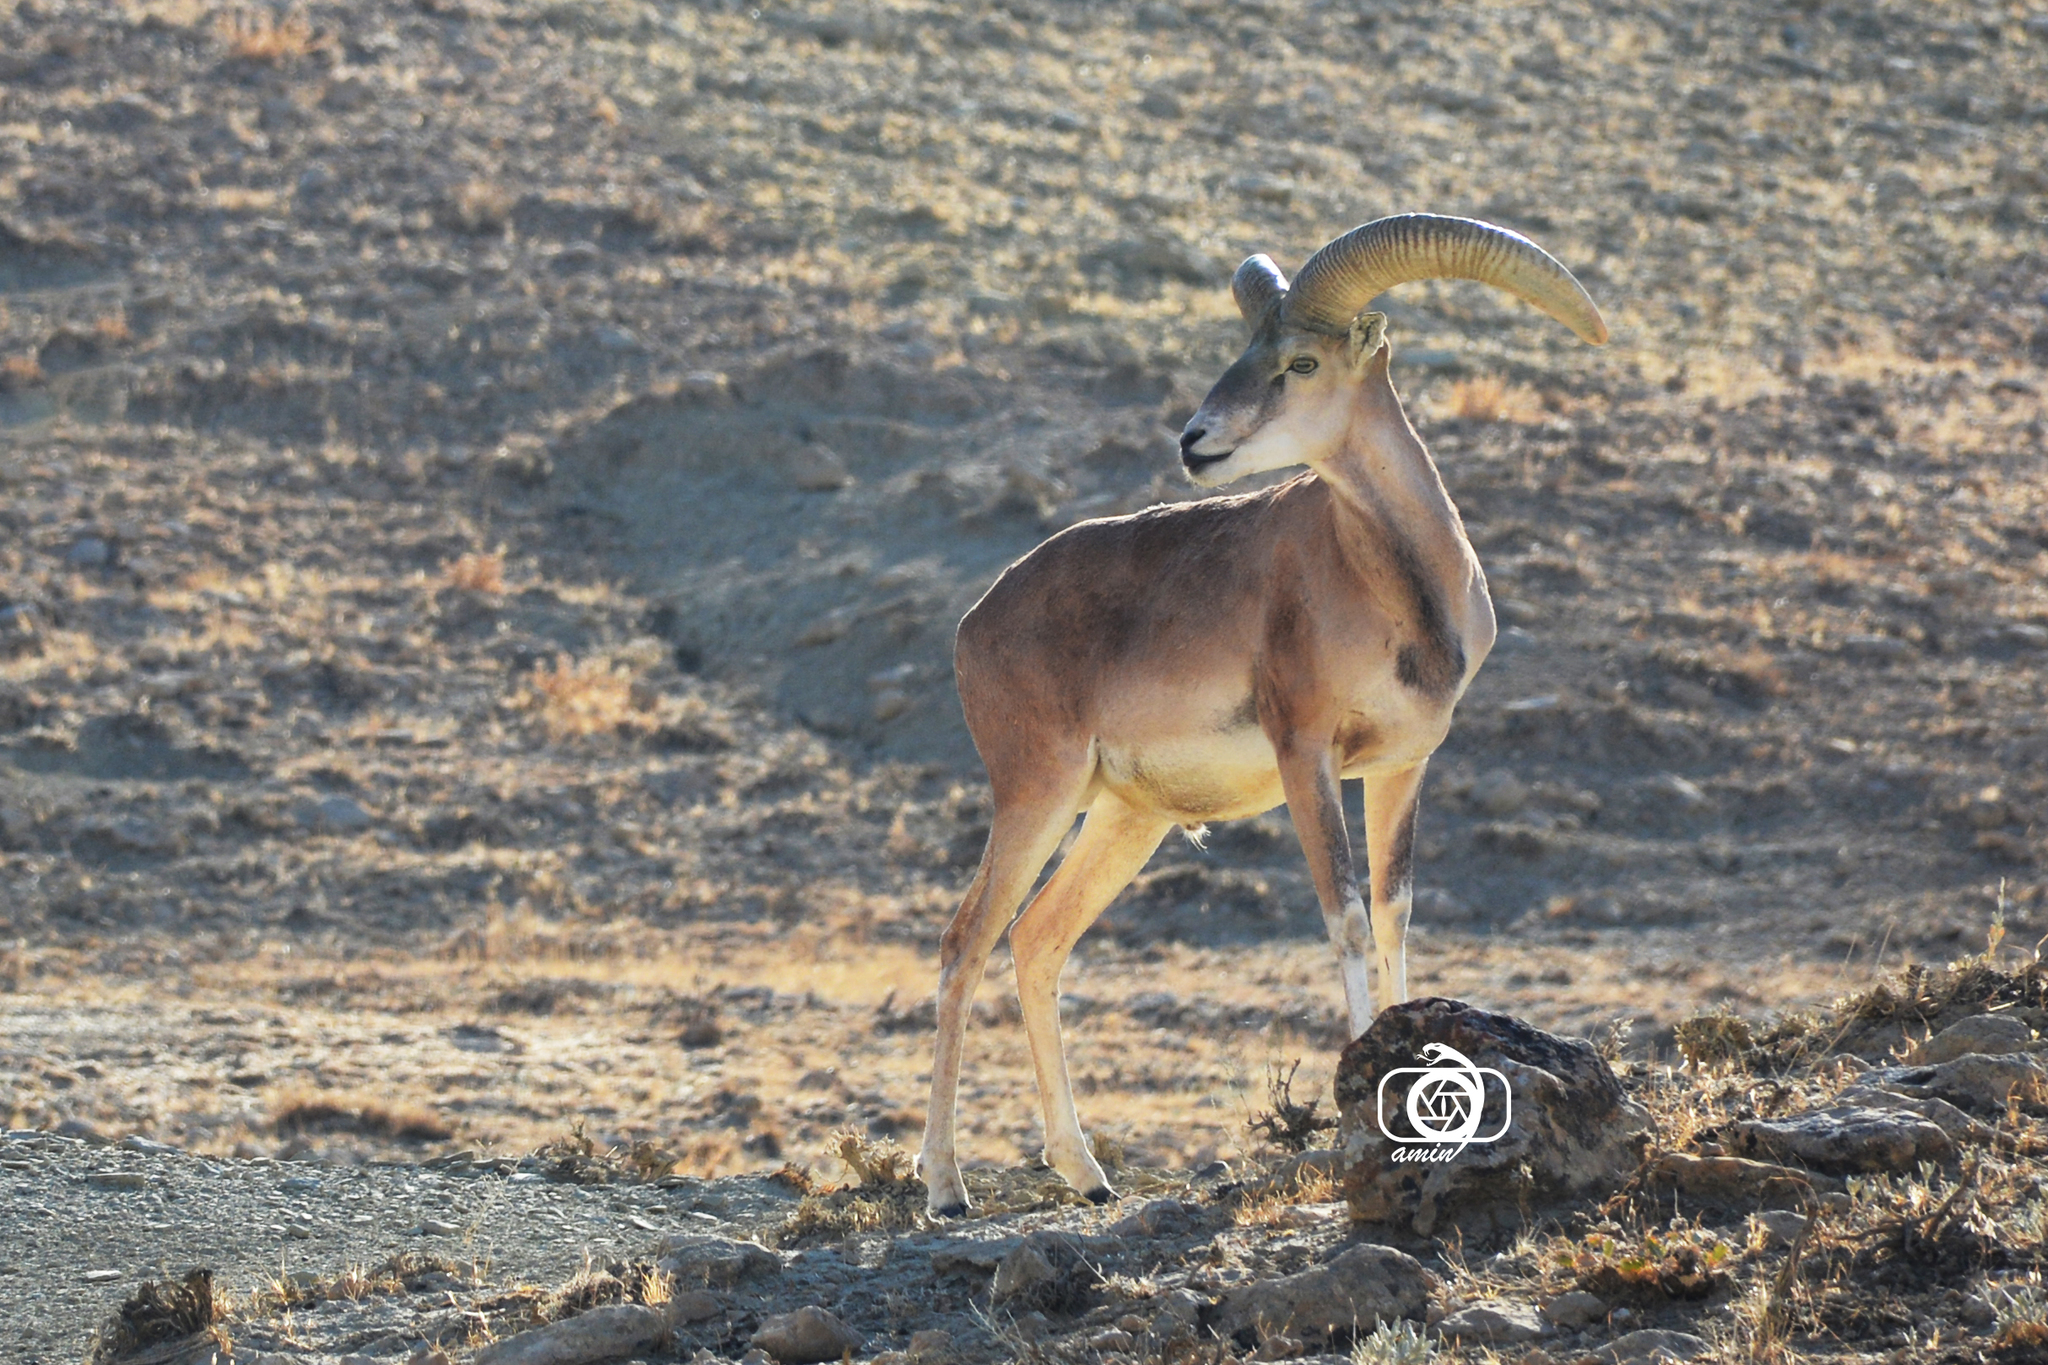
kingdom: Animalia
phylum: Chordata
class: Mammalia
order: Artiodactyla
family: Bovidae
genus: Ovis
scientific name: Ovis gmelini
